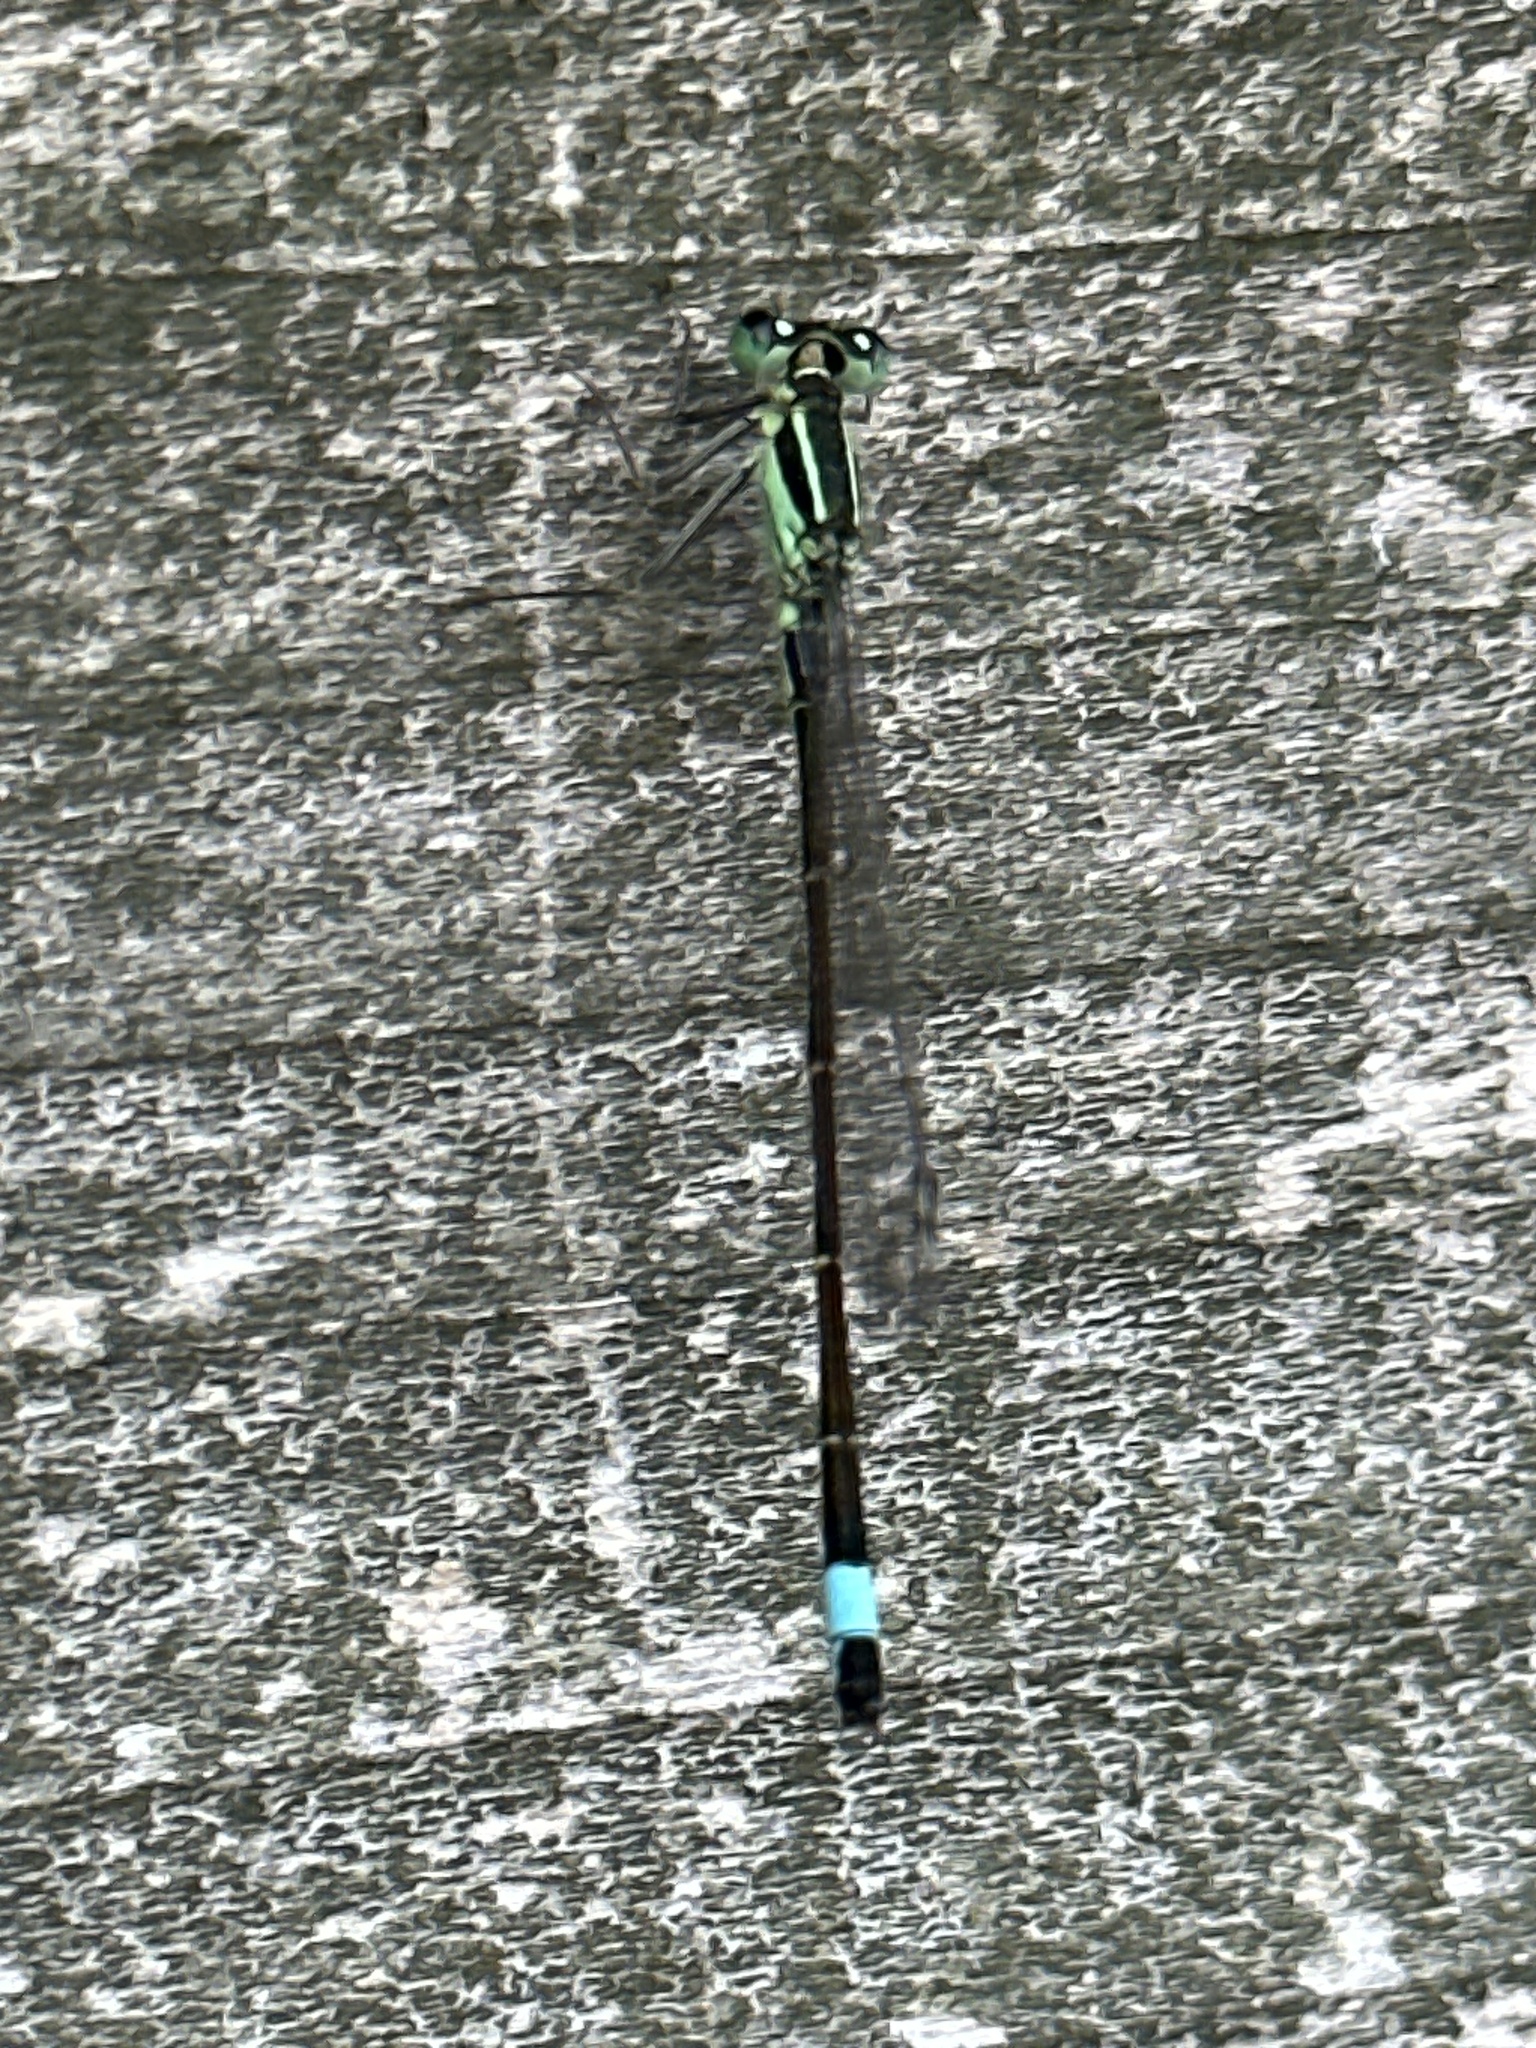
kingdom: Animalia
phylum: Arthropoda
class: Insecta
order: Odonata
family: Coenagrionidae
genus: Ischnura
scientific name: Ischnura elegans
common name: Blue-tailed damselfly
